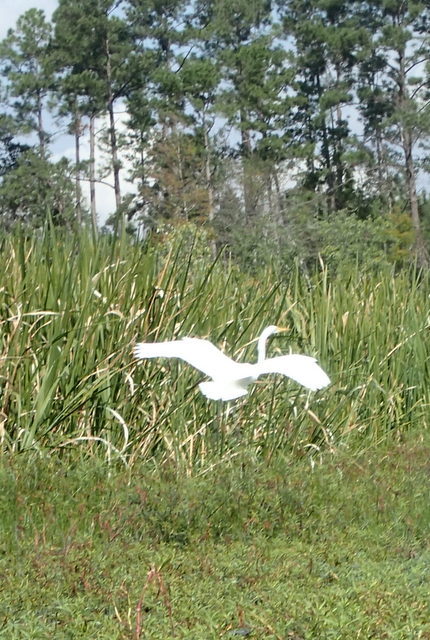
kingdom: Animalia
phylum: Chordata
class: Aves
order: Pelecaniformes
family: Ardeidae
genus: Ardea
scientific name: Ardea alba
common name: Great egret
